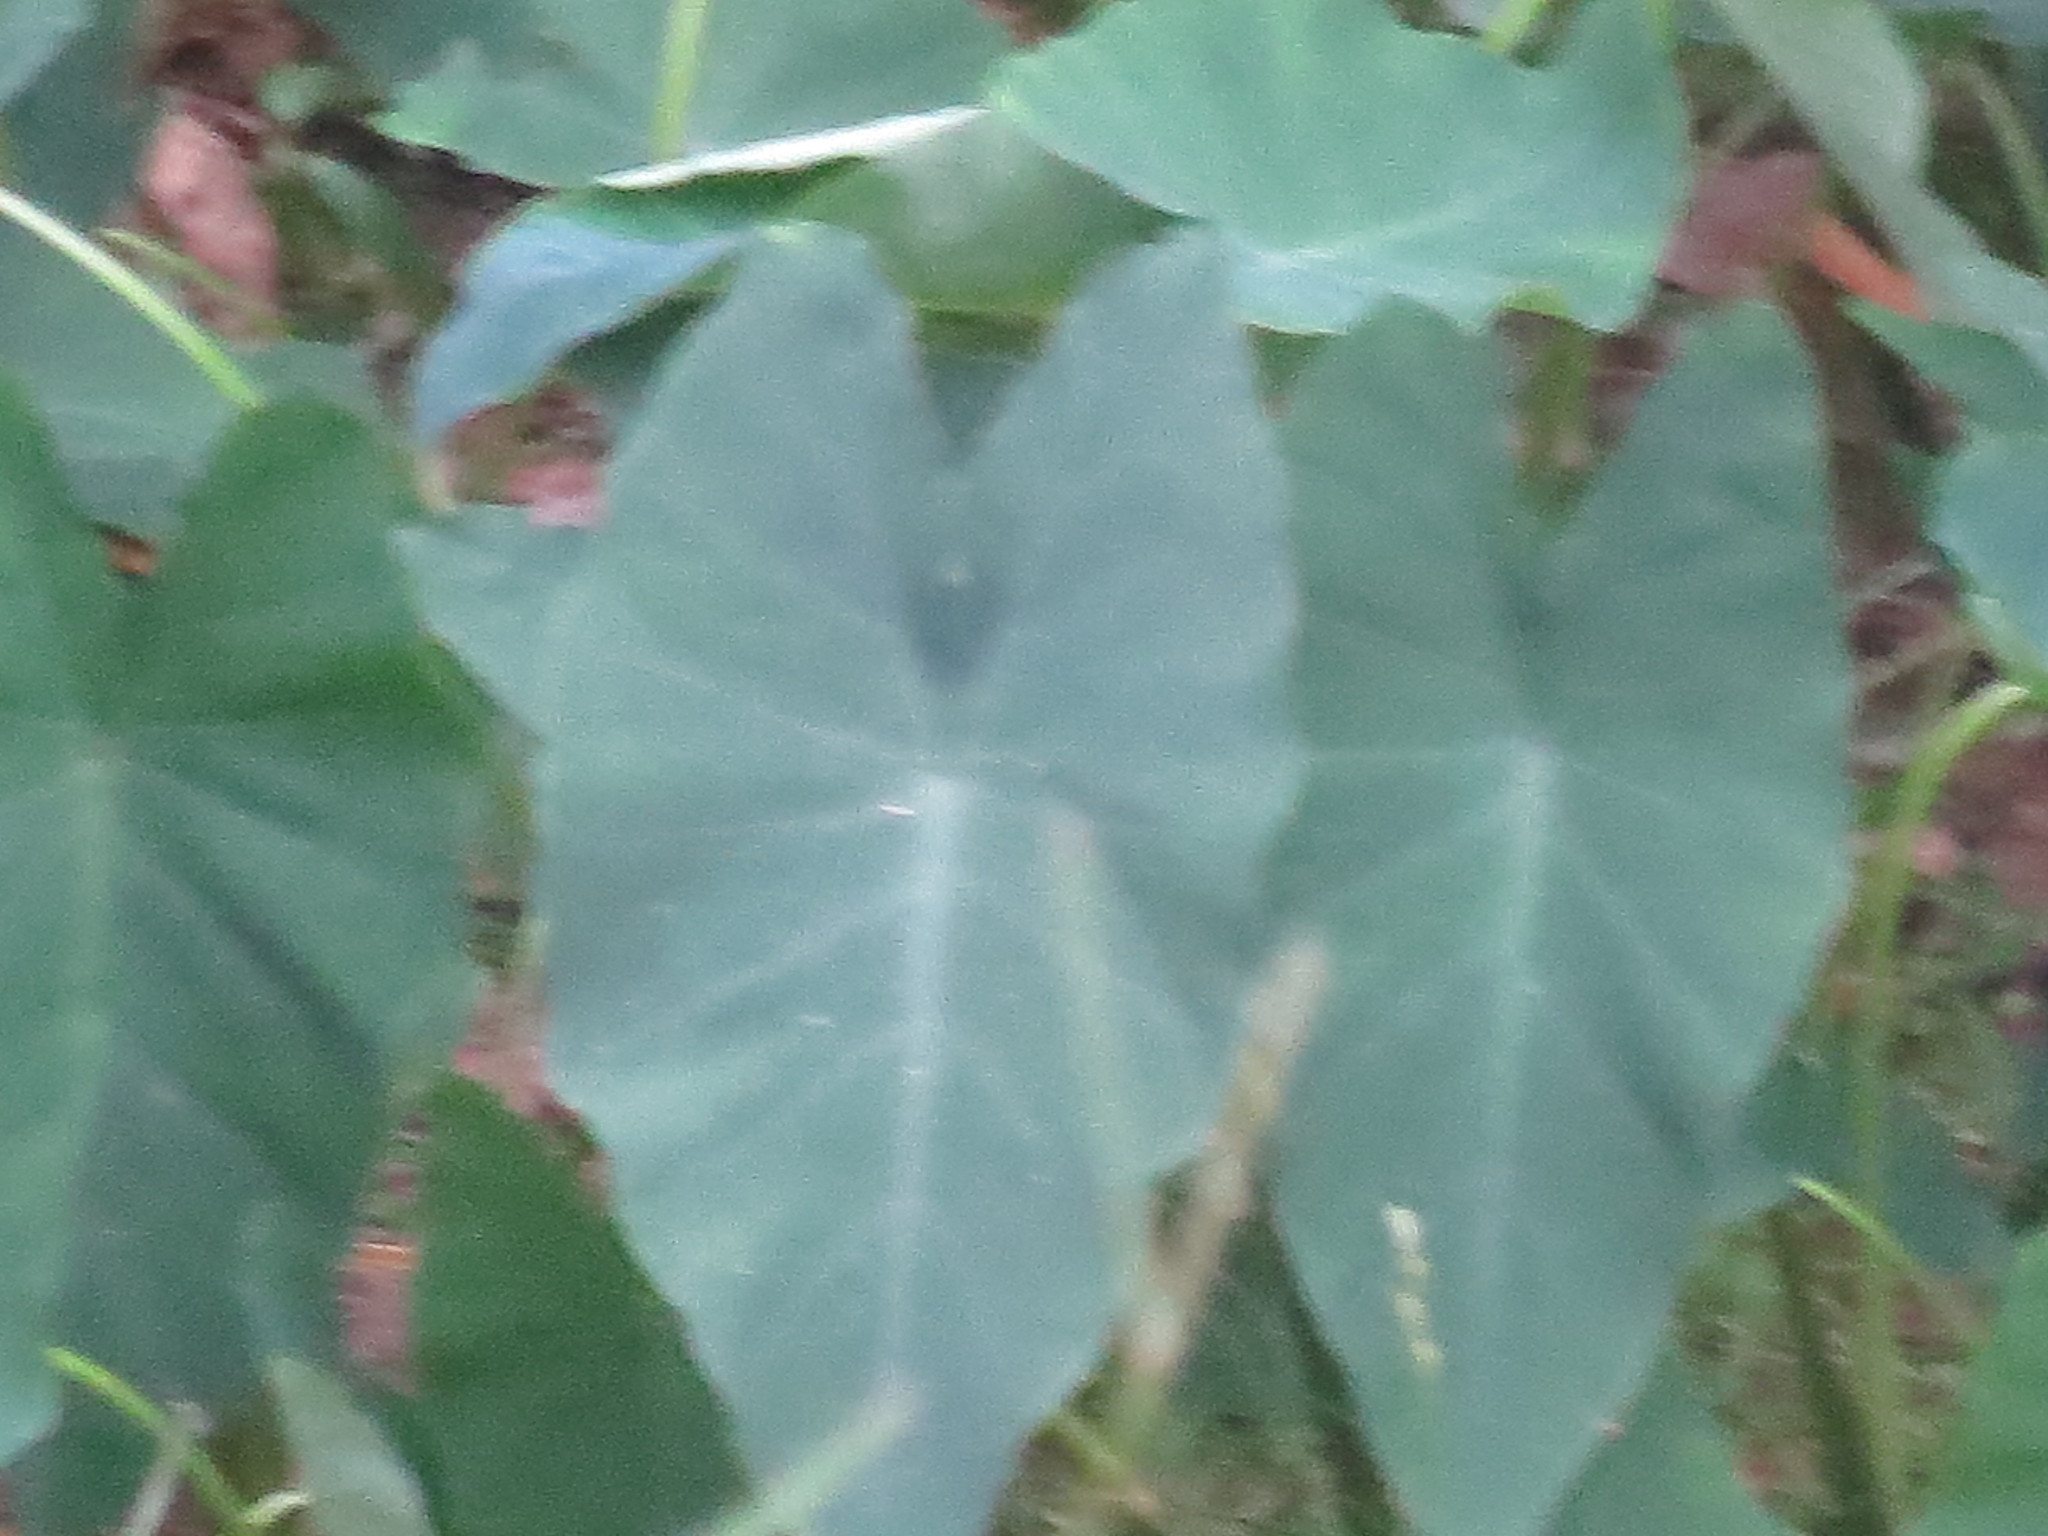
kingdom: Plantae
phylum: Tracheophyta
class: Liliopsida
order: Alismatales
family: Araceae
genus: Colocasia
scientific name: Colocasia esculenta
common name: Taro
